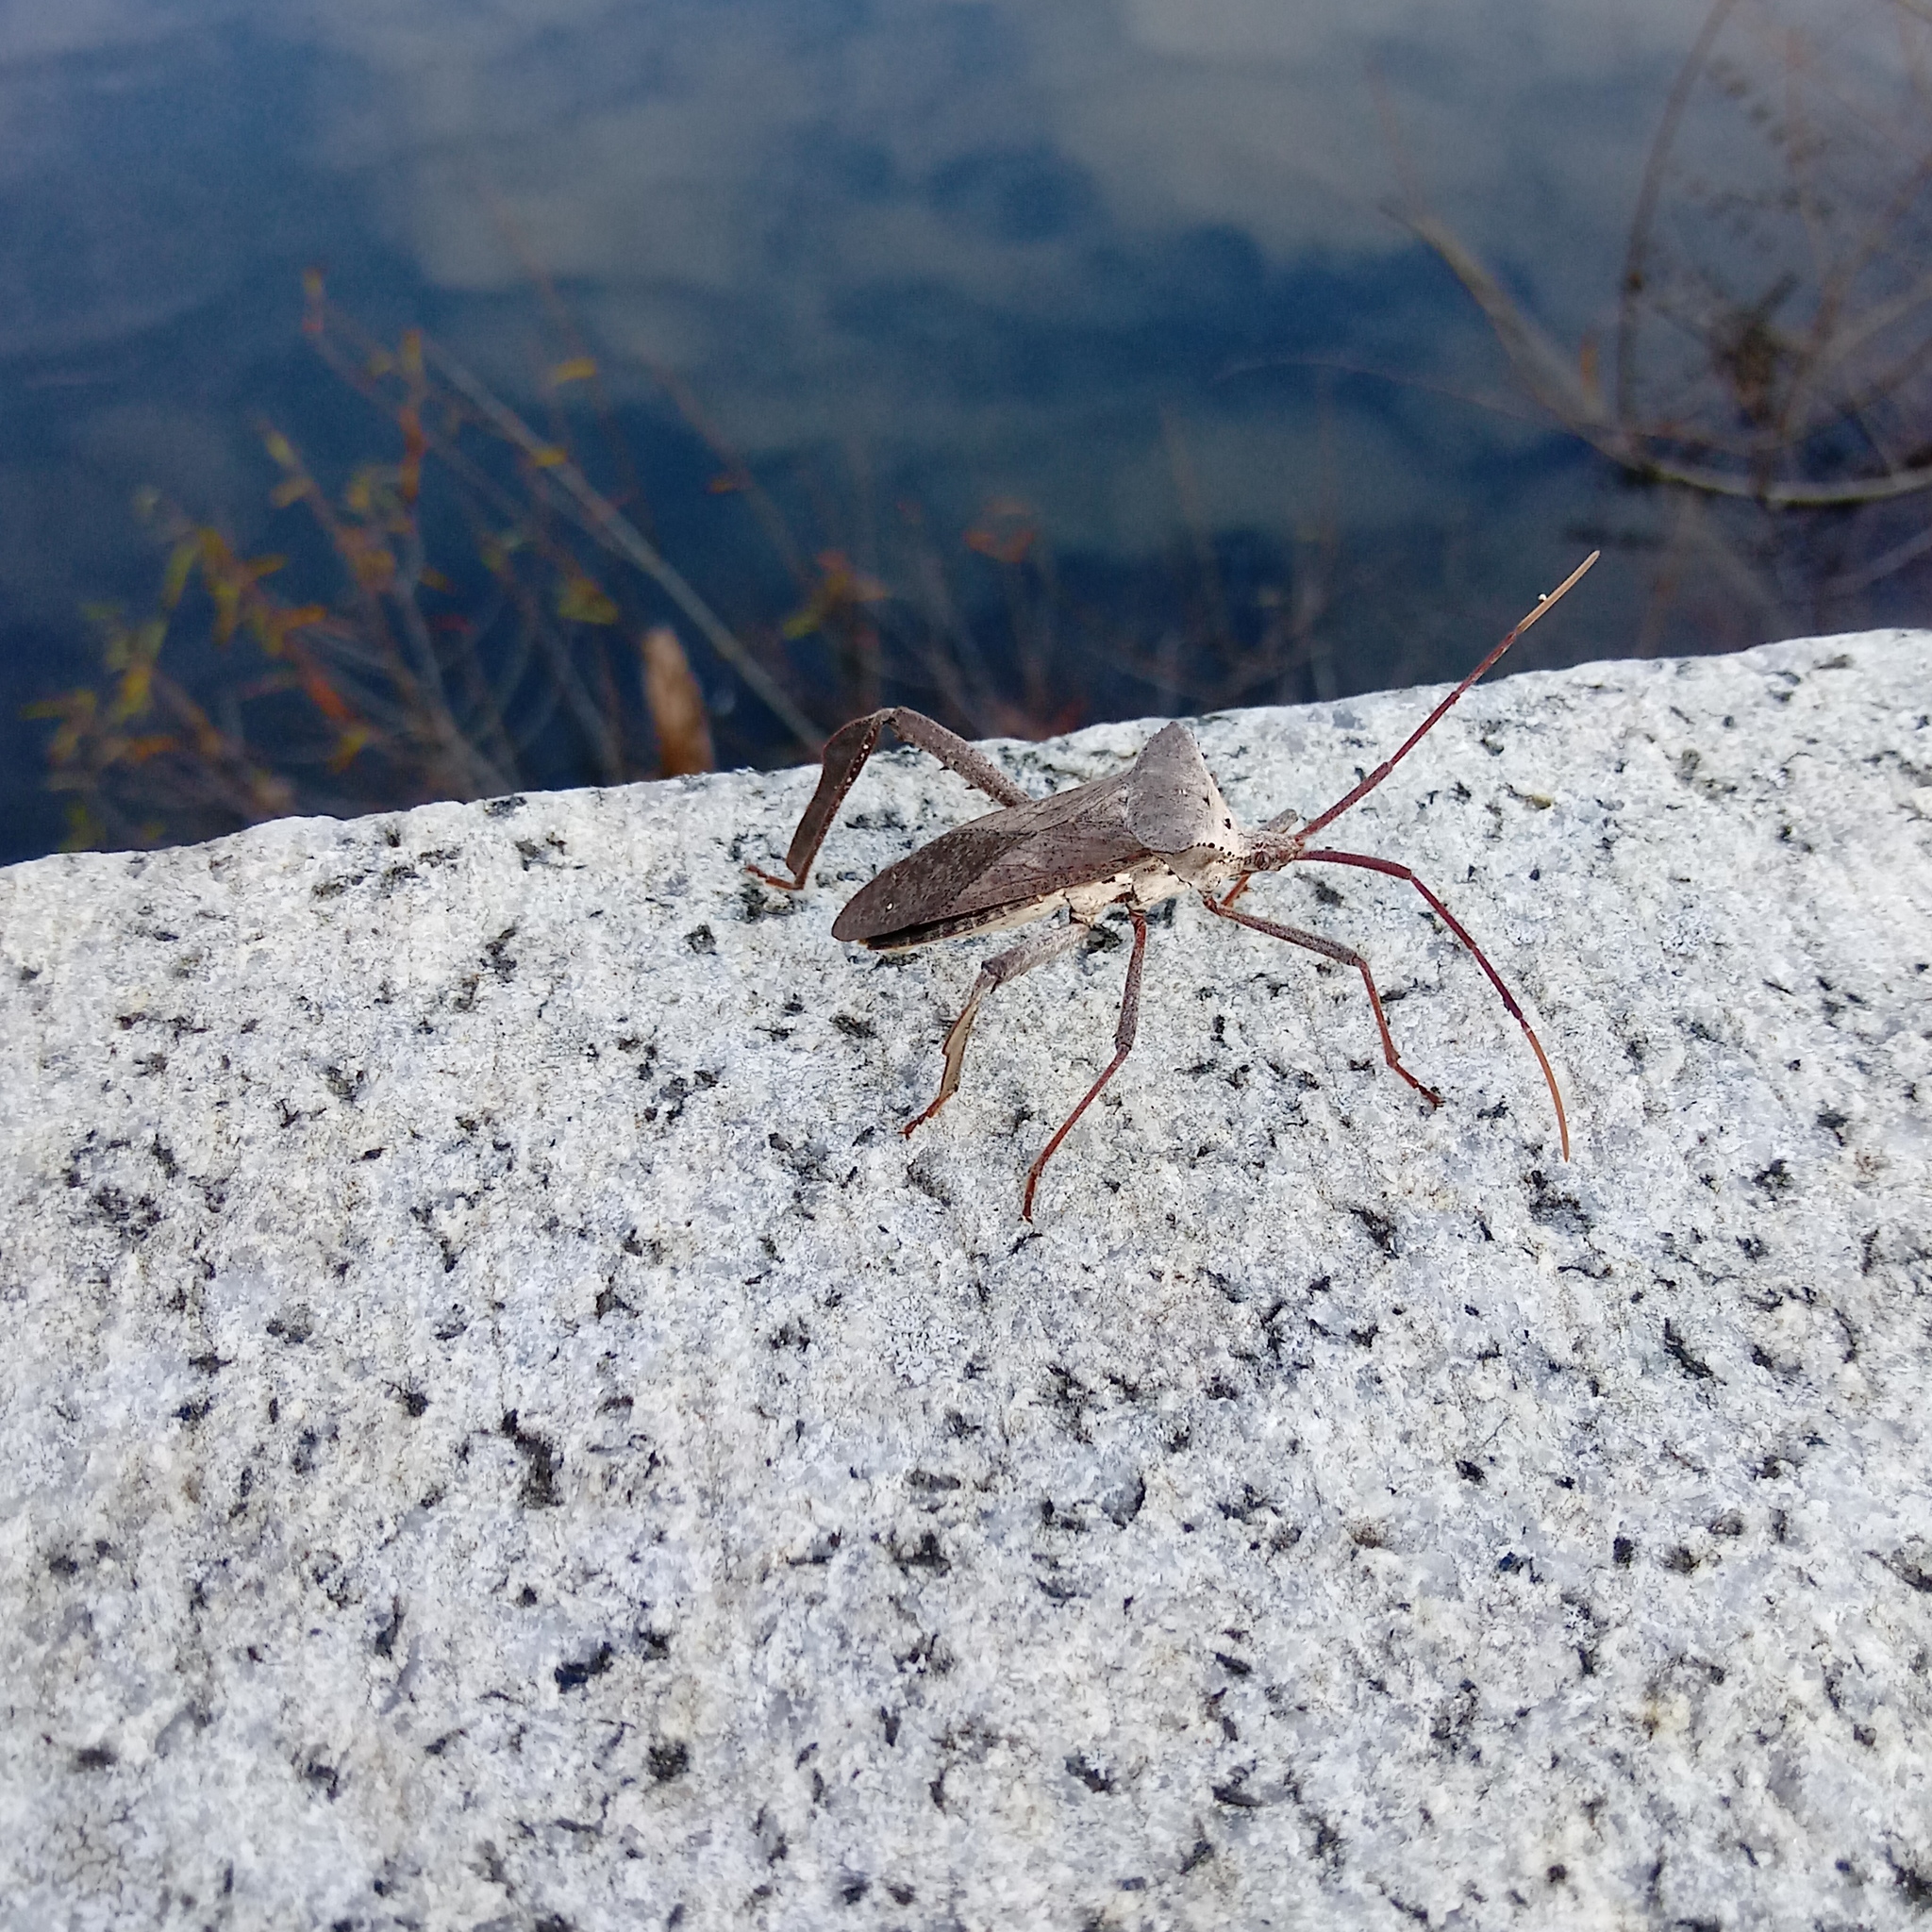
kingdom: Animalia
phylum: Arthropoda
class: Insecta
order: Hemiptera
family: Coreidae
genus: Acanthocephala
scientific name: Acanthocephala declivis
